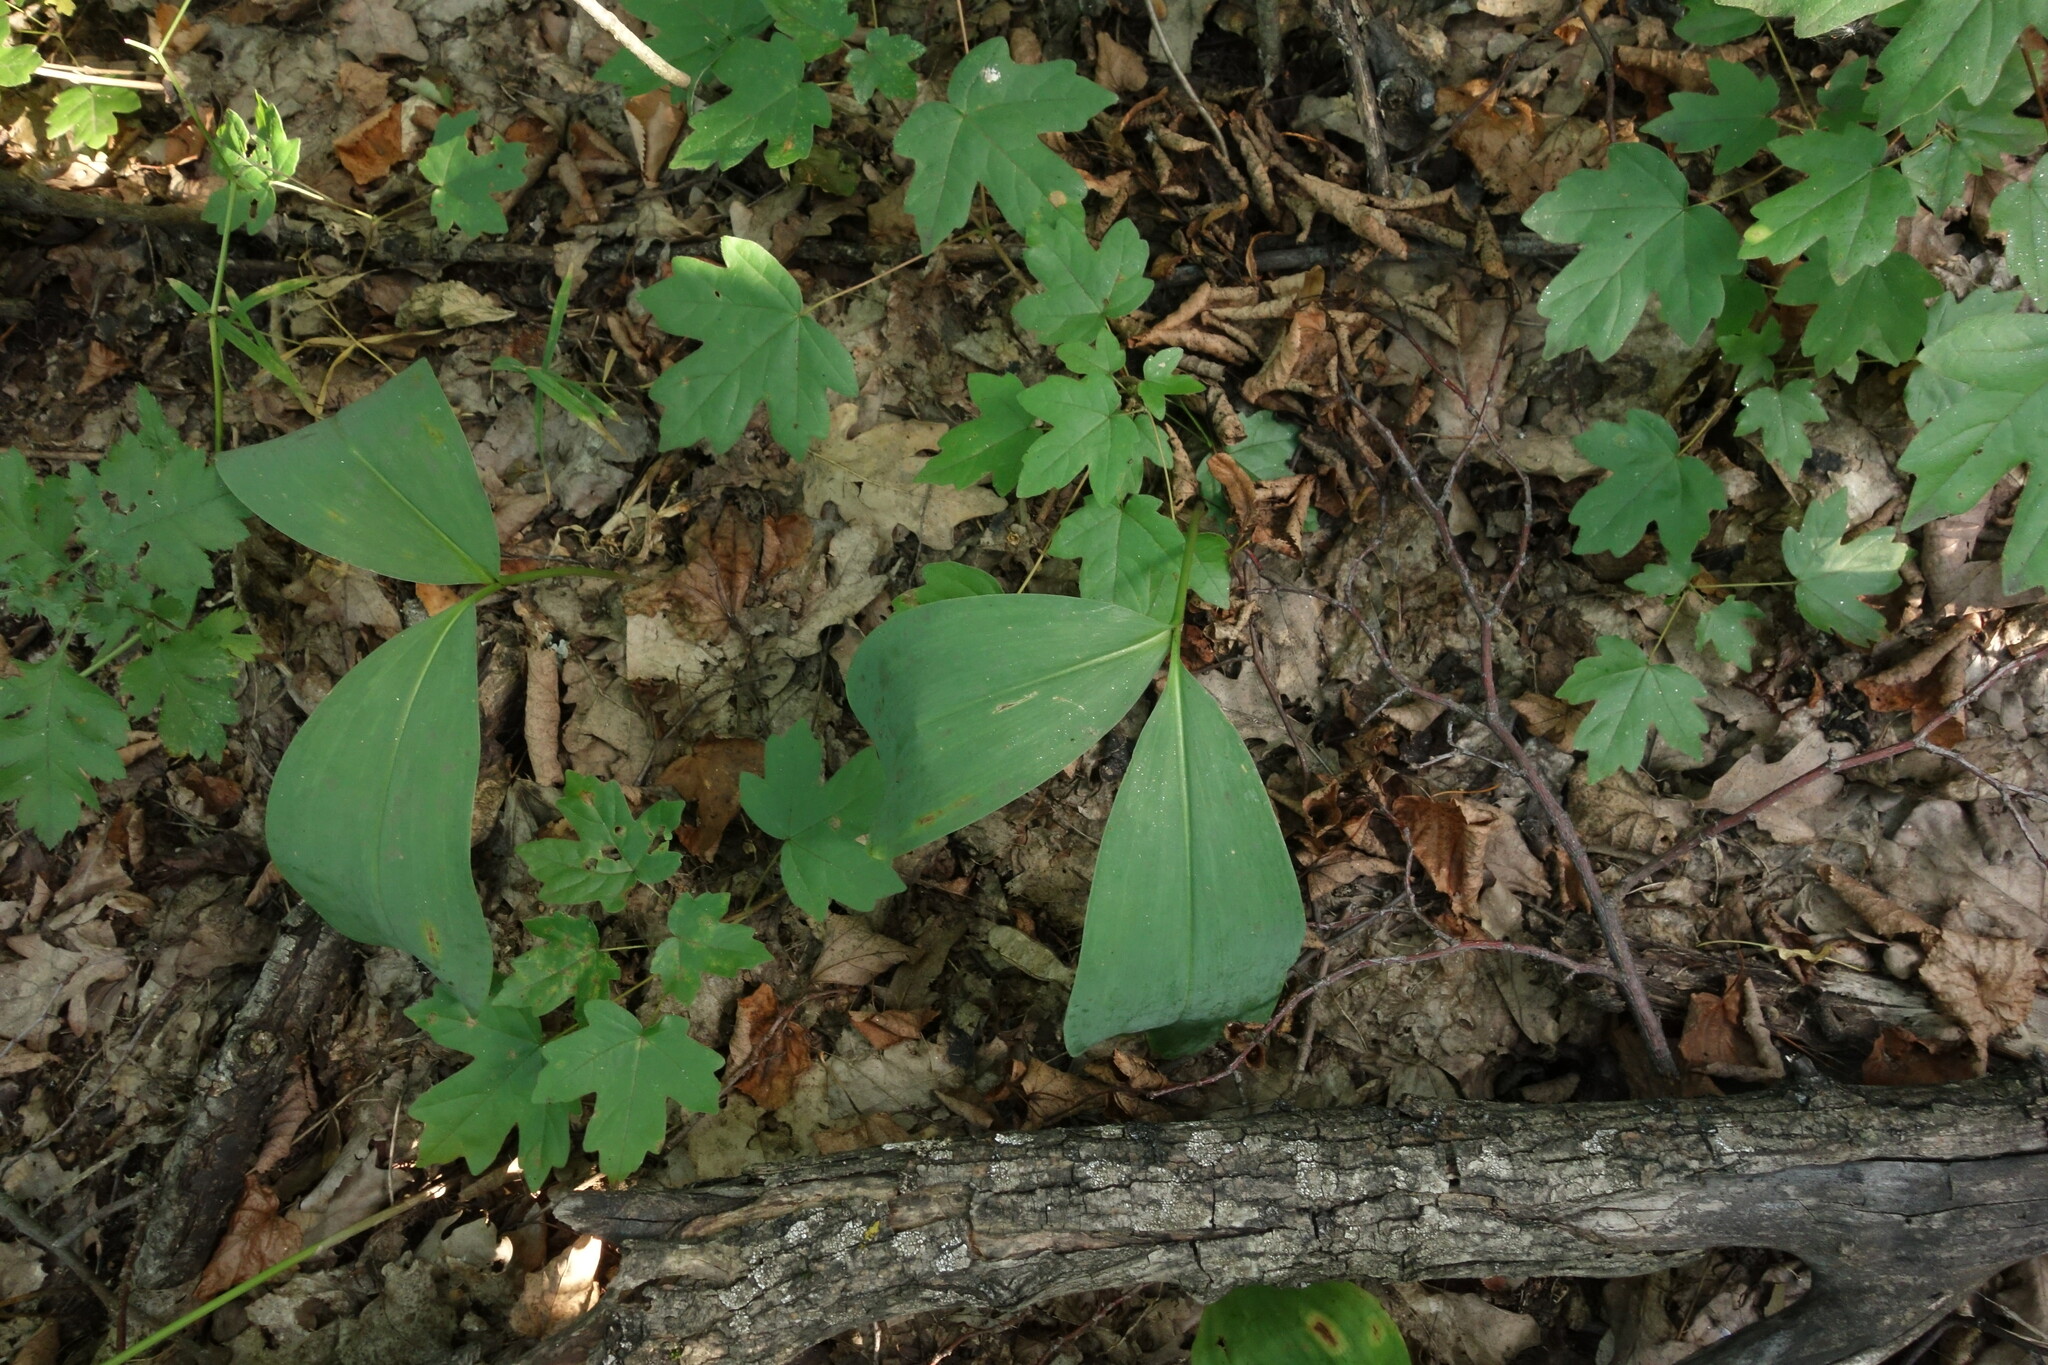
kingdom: Plantae
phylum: Tracheophyta
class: Liliopsida
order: Asparagales
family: Asparagaceae
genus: Convallaria
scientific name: Convallaria majalis
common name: Lily-of-the-valley
